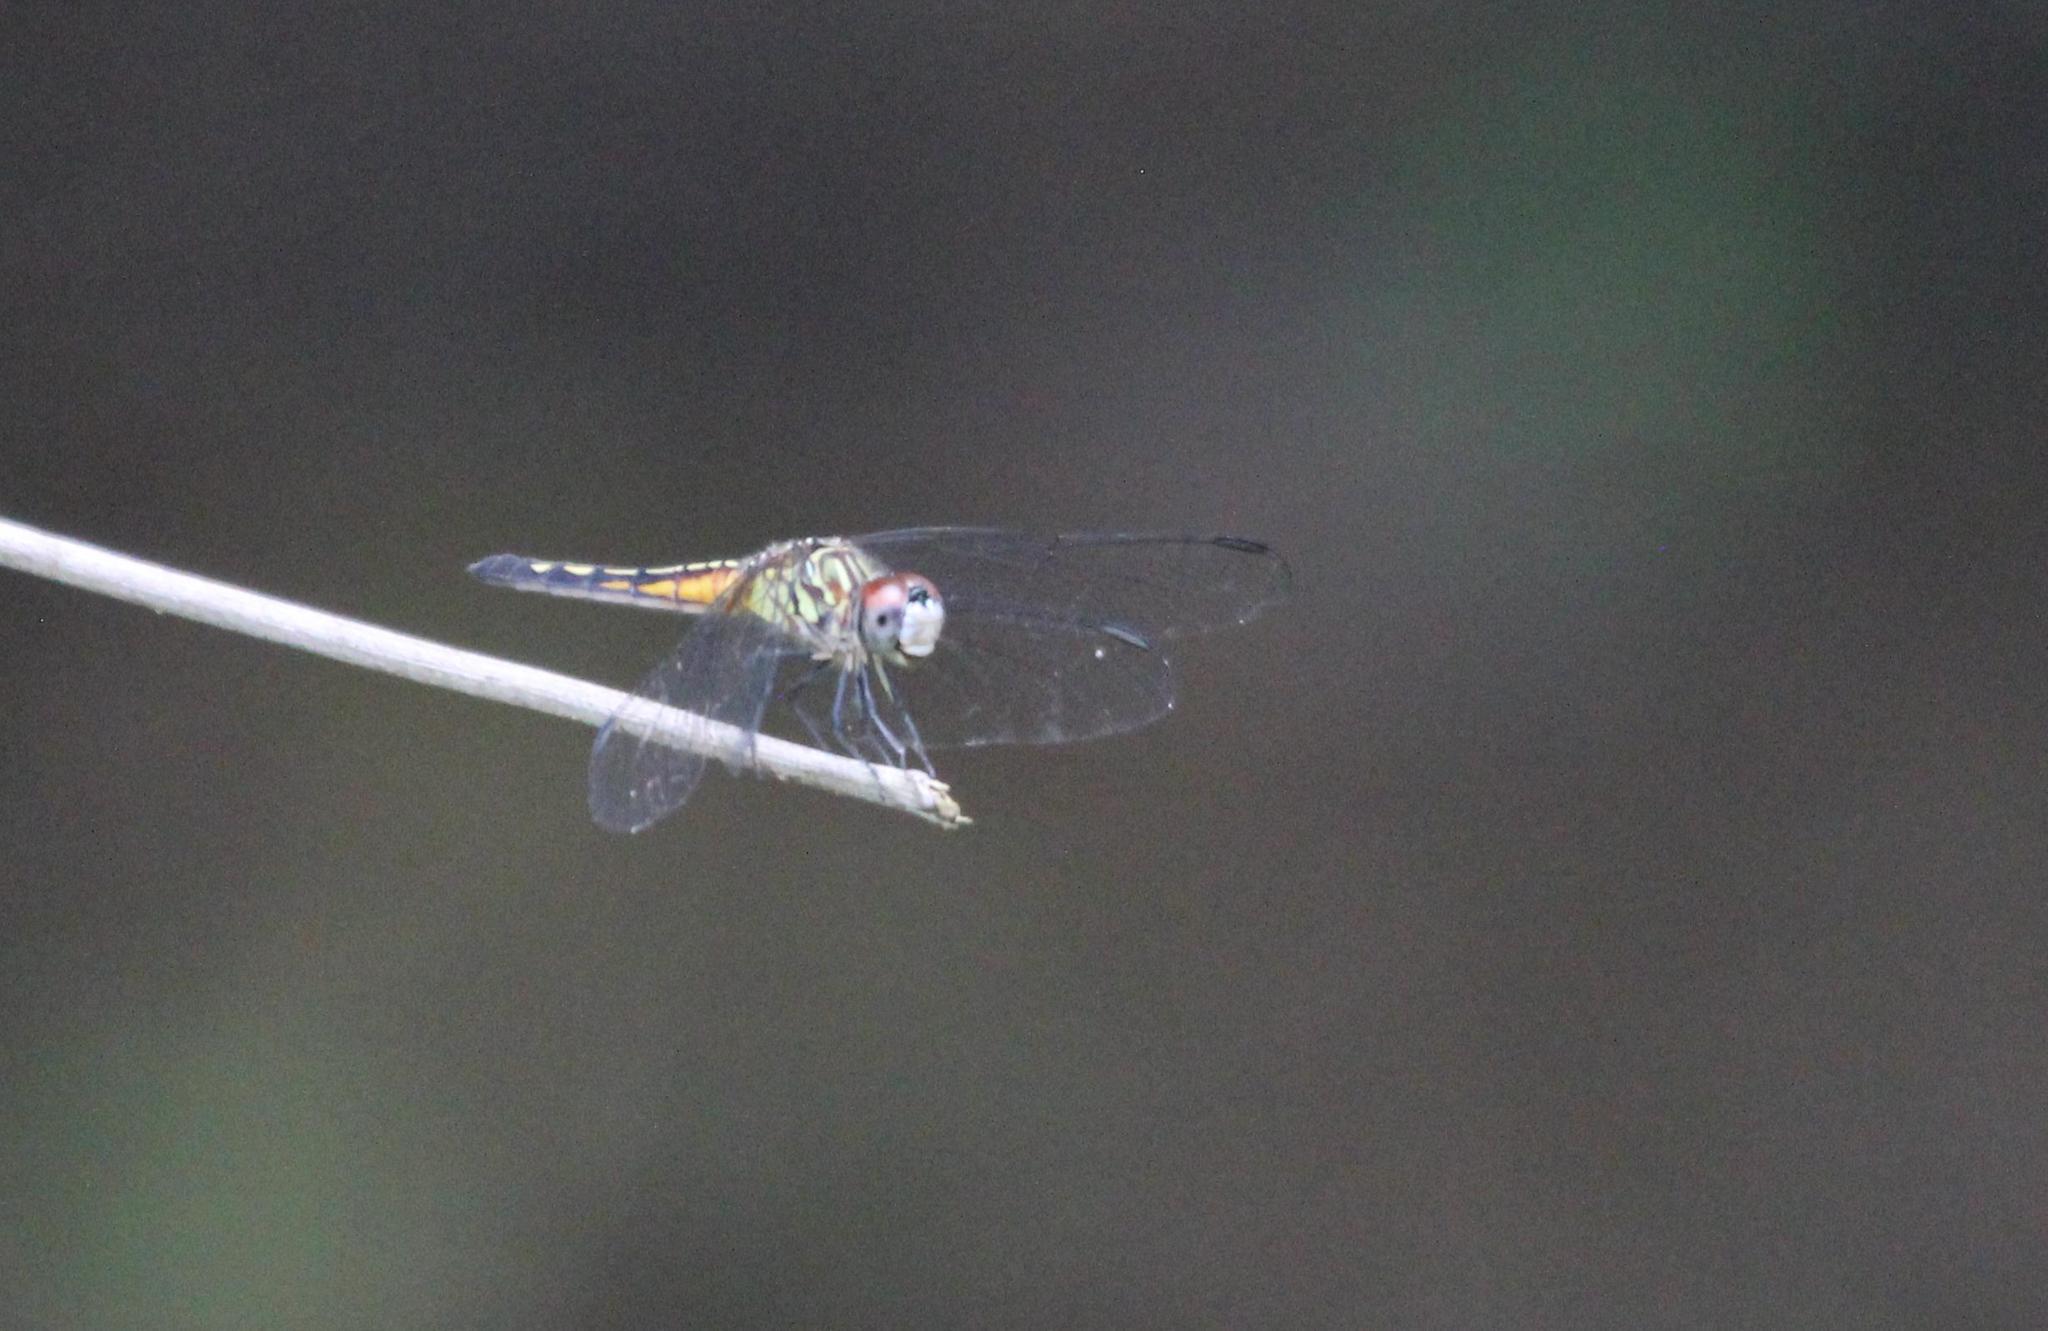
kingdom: Animalia
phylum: Arthropoda
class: Insecta
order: Odonata
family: Libellulidae
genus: Pachydiplax
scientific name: Pachydiplax longipennis
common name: Blue dasher
